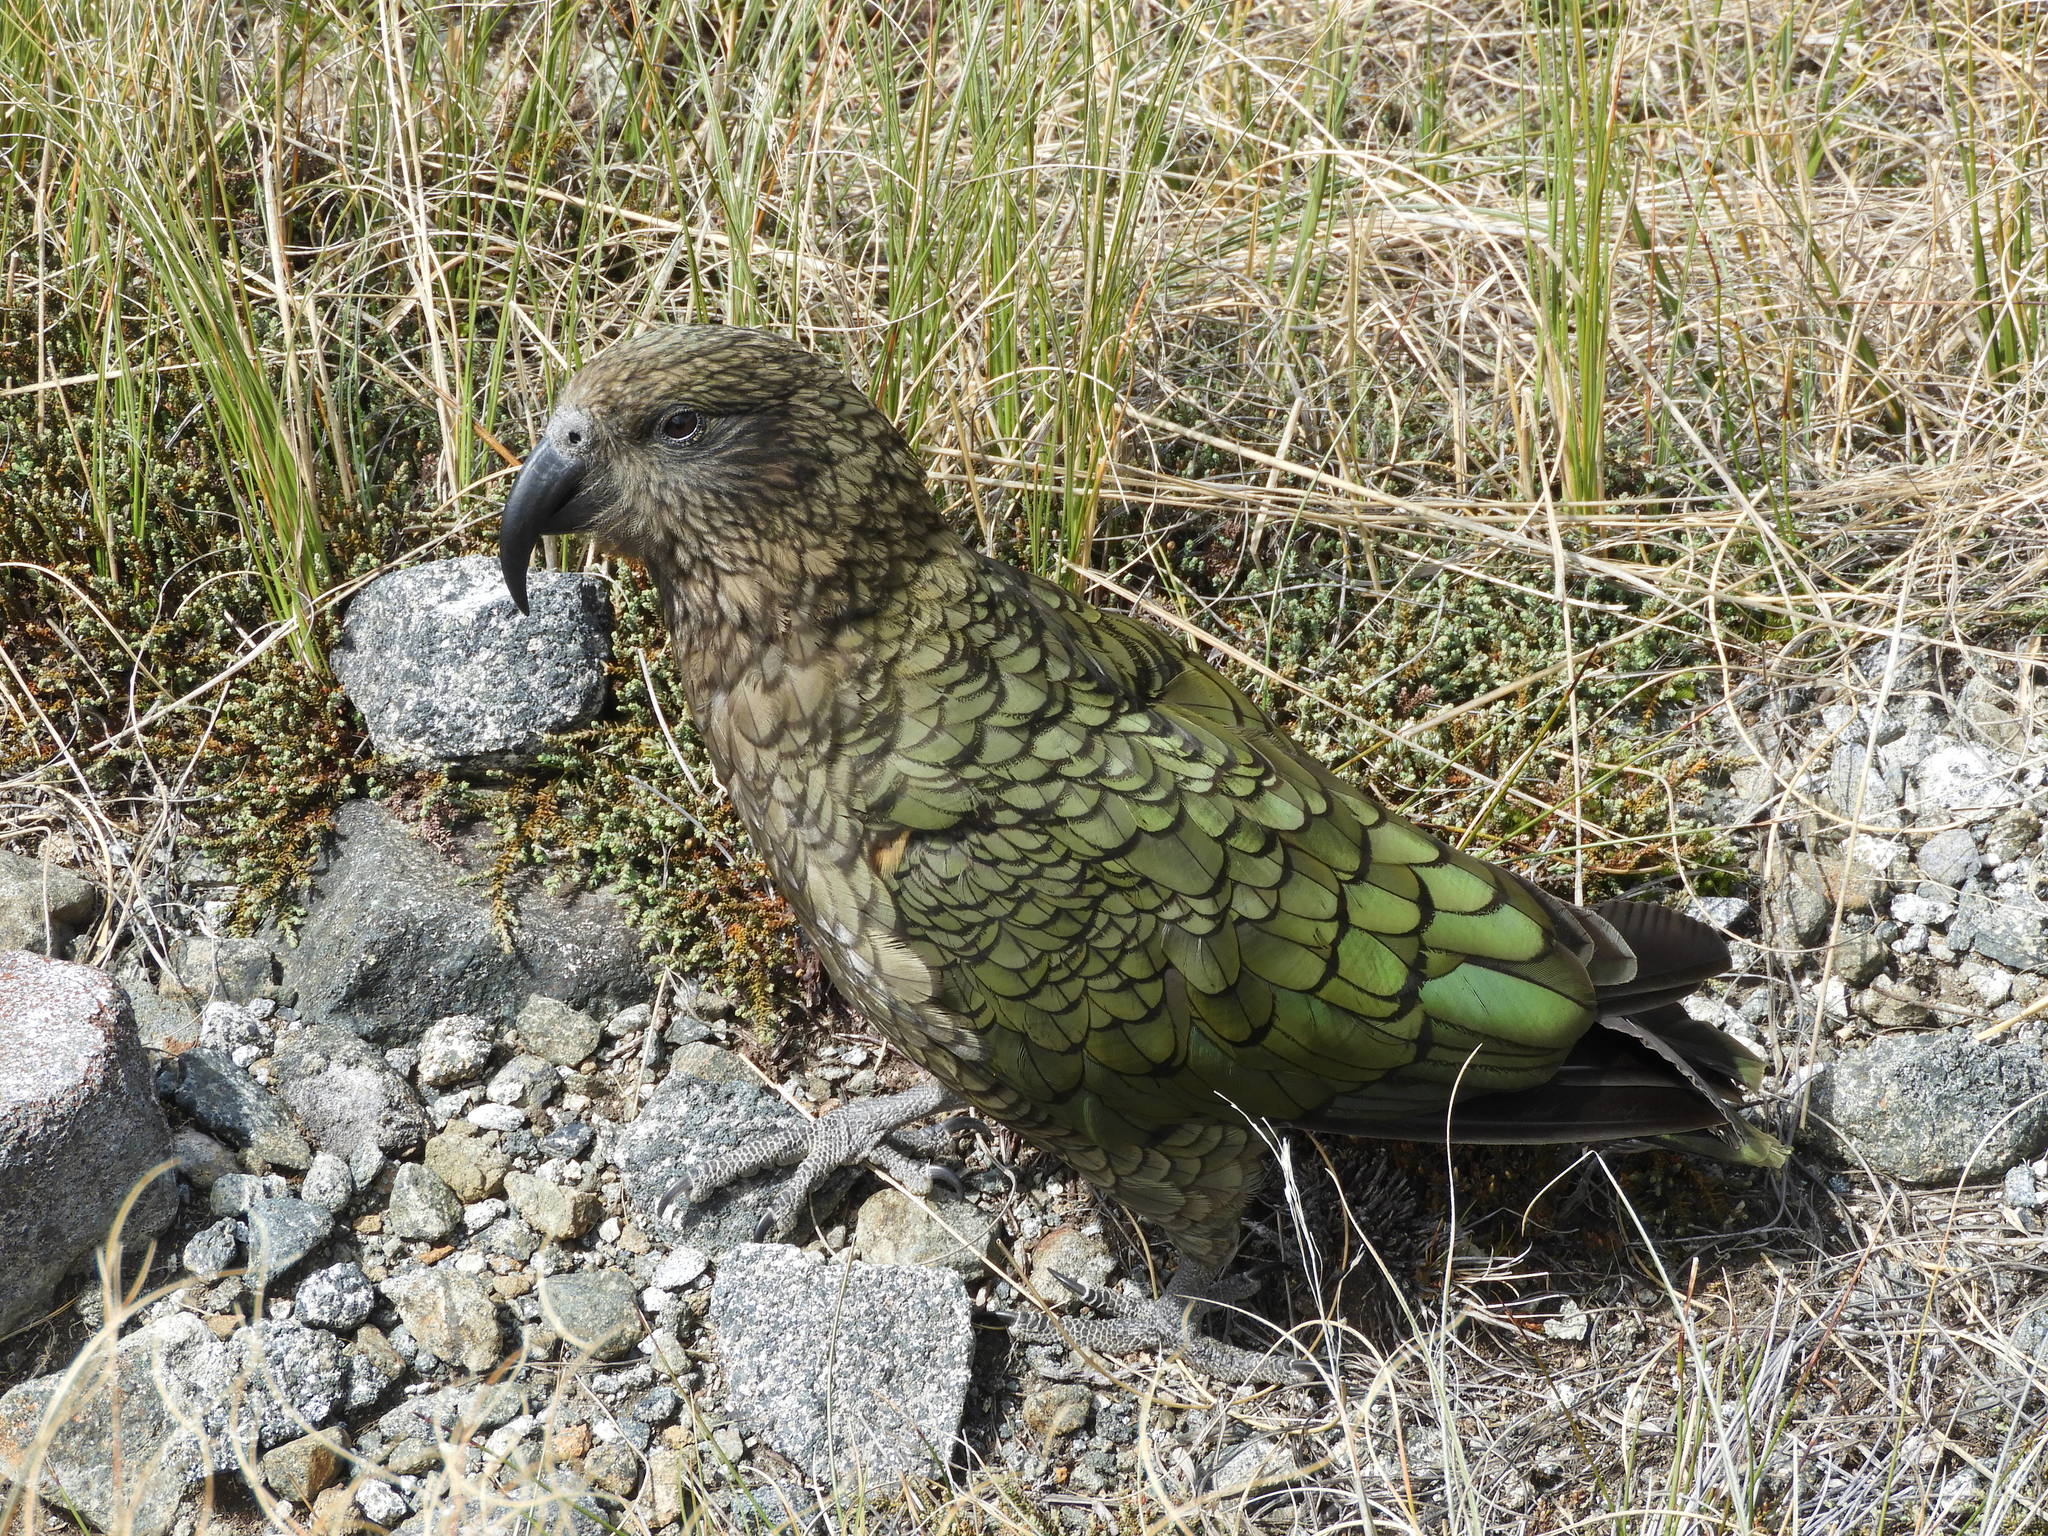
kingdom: Animalia
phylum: Chordata
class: Aves
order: Psittaciformes
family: Psittacidae
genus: Nestor
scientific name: Nestor notabilis
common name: Kea
